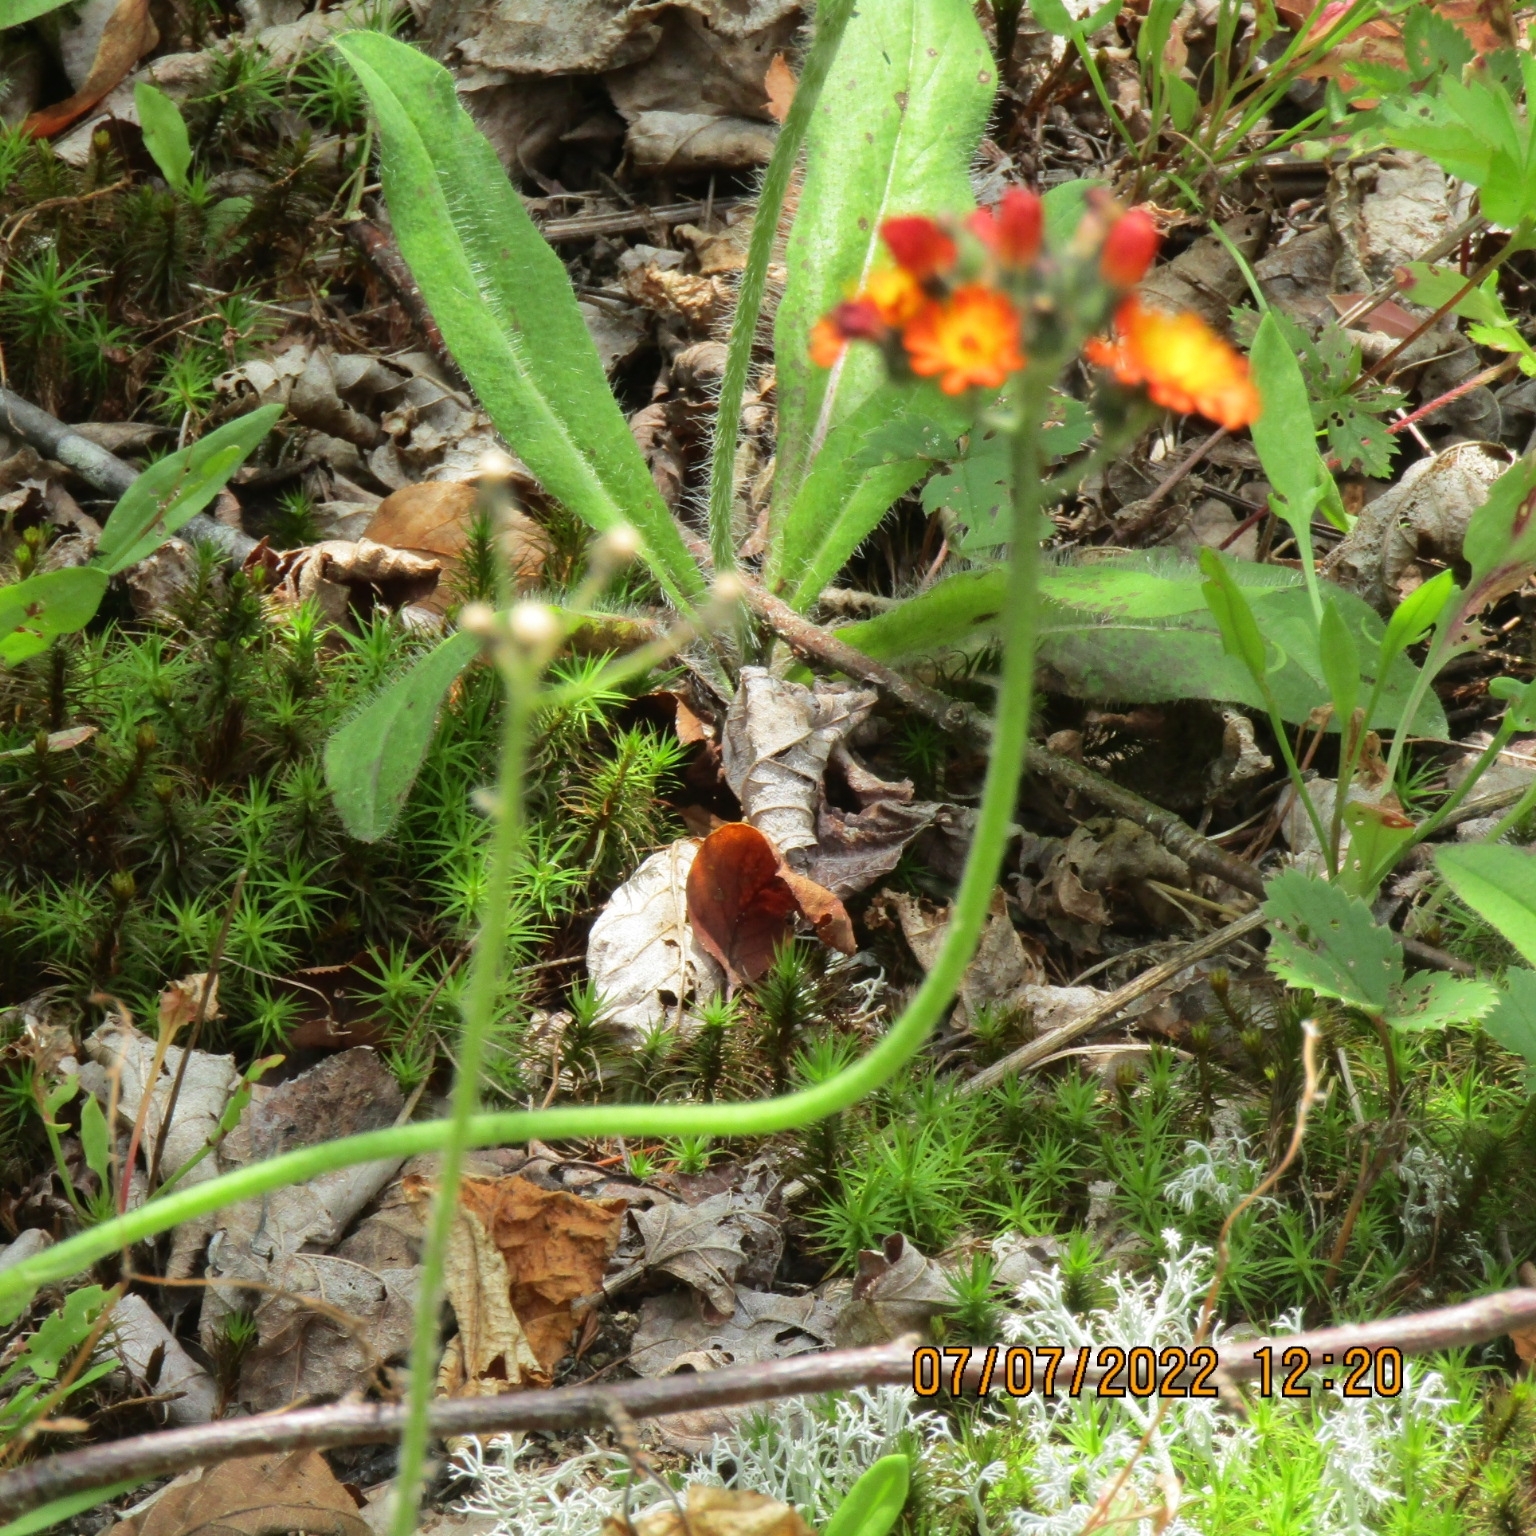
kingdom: Plantae
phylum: Tracheophyta
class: Magnoliopsida
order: Asterales
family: Asteraceae
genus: Pilosella
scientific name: Pilosella aurantiaca
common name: Fox-and-cubs
